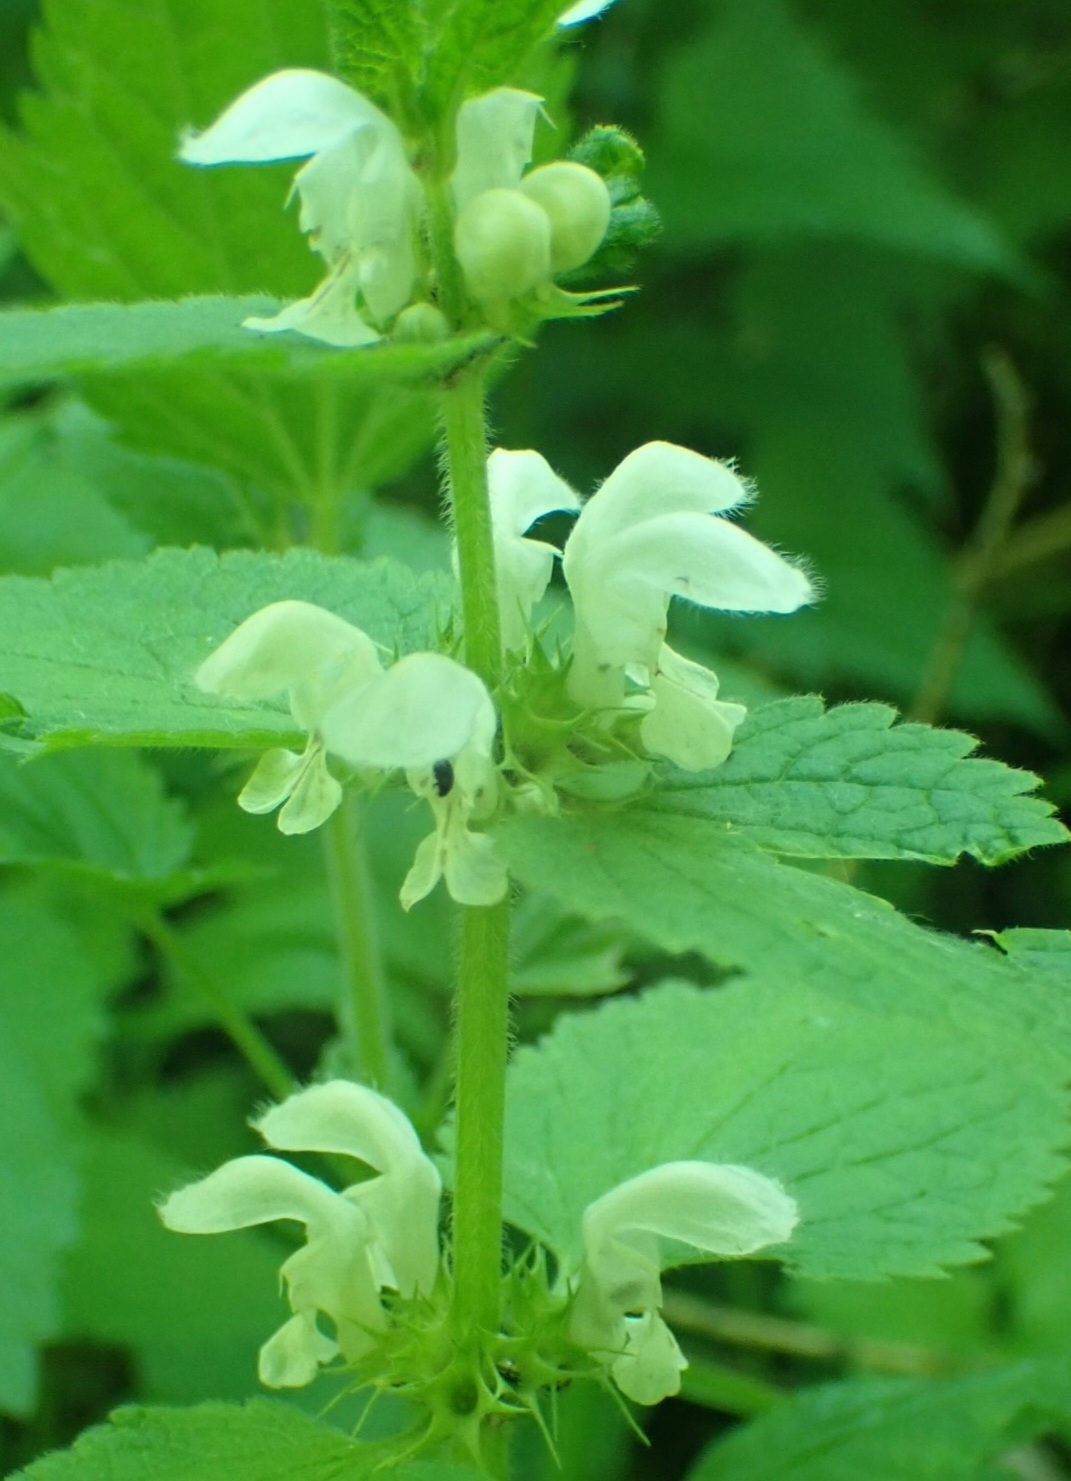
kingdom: Plantae
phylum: Tracheophyta
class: Magnoliopsida
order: Lamiales
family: Lamiaceae
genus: Lamium
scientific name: Lamium album
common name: White dead-nettle
